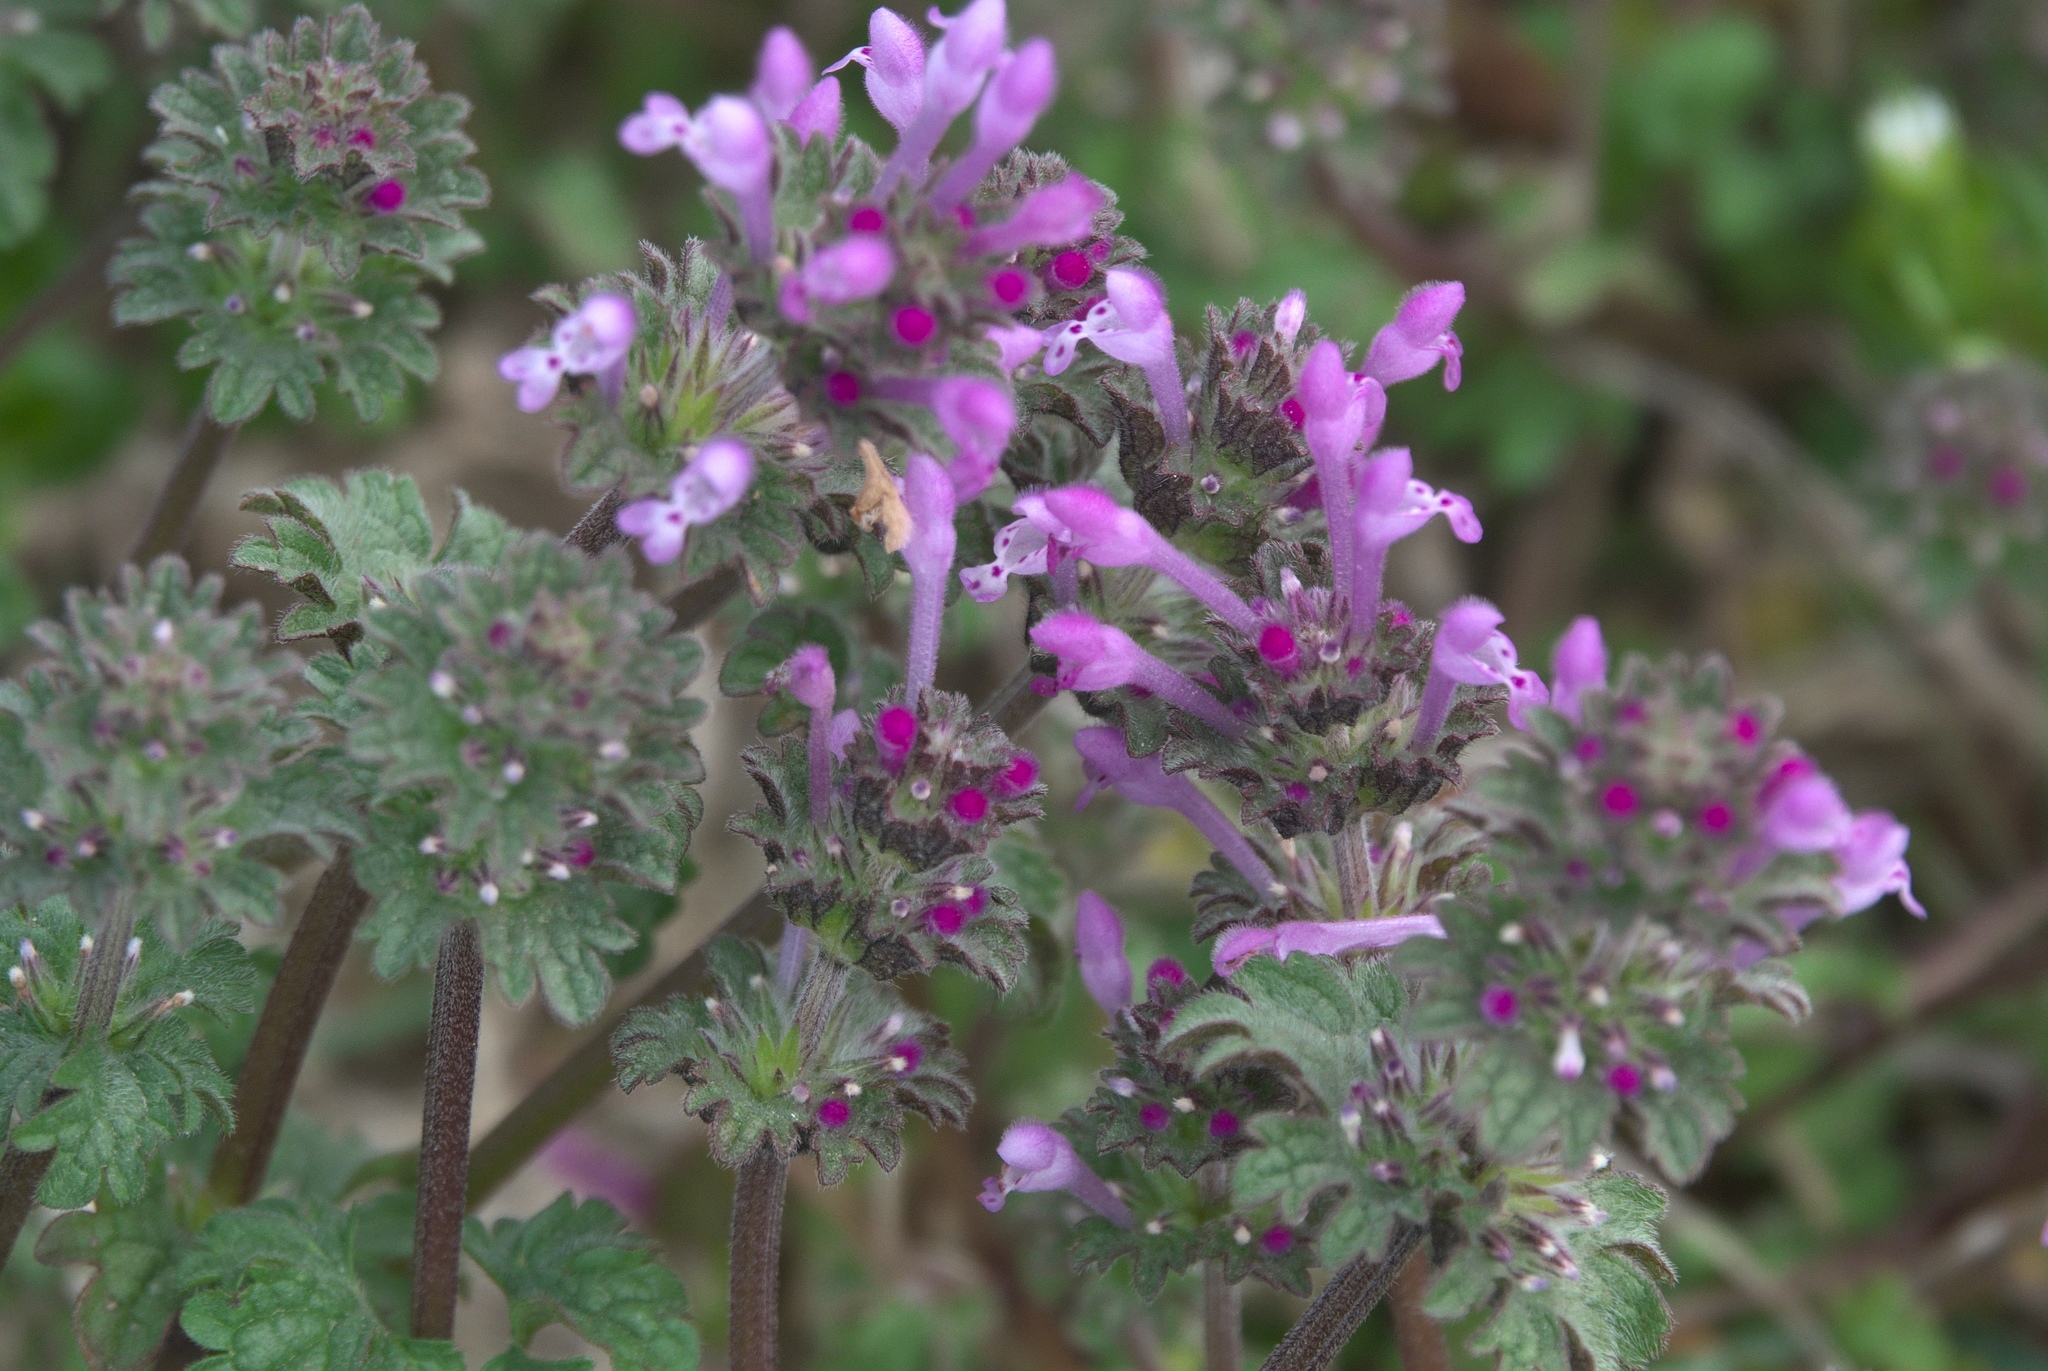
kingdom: Plantae
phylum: Tracheophyta
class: Magnoliopsida
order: Lamiales
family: Lamiaceae
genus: Lamium
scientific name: Lamium amplexicaule
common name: Henbit dead-nettle
